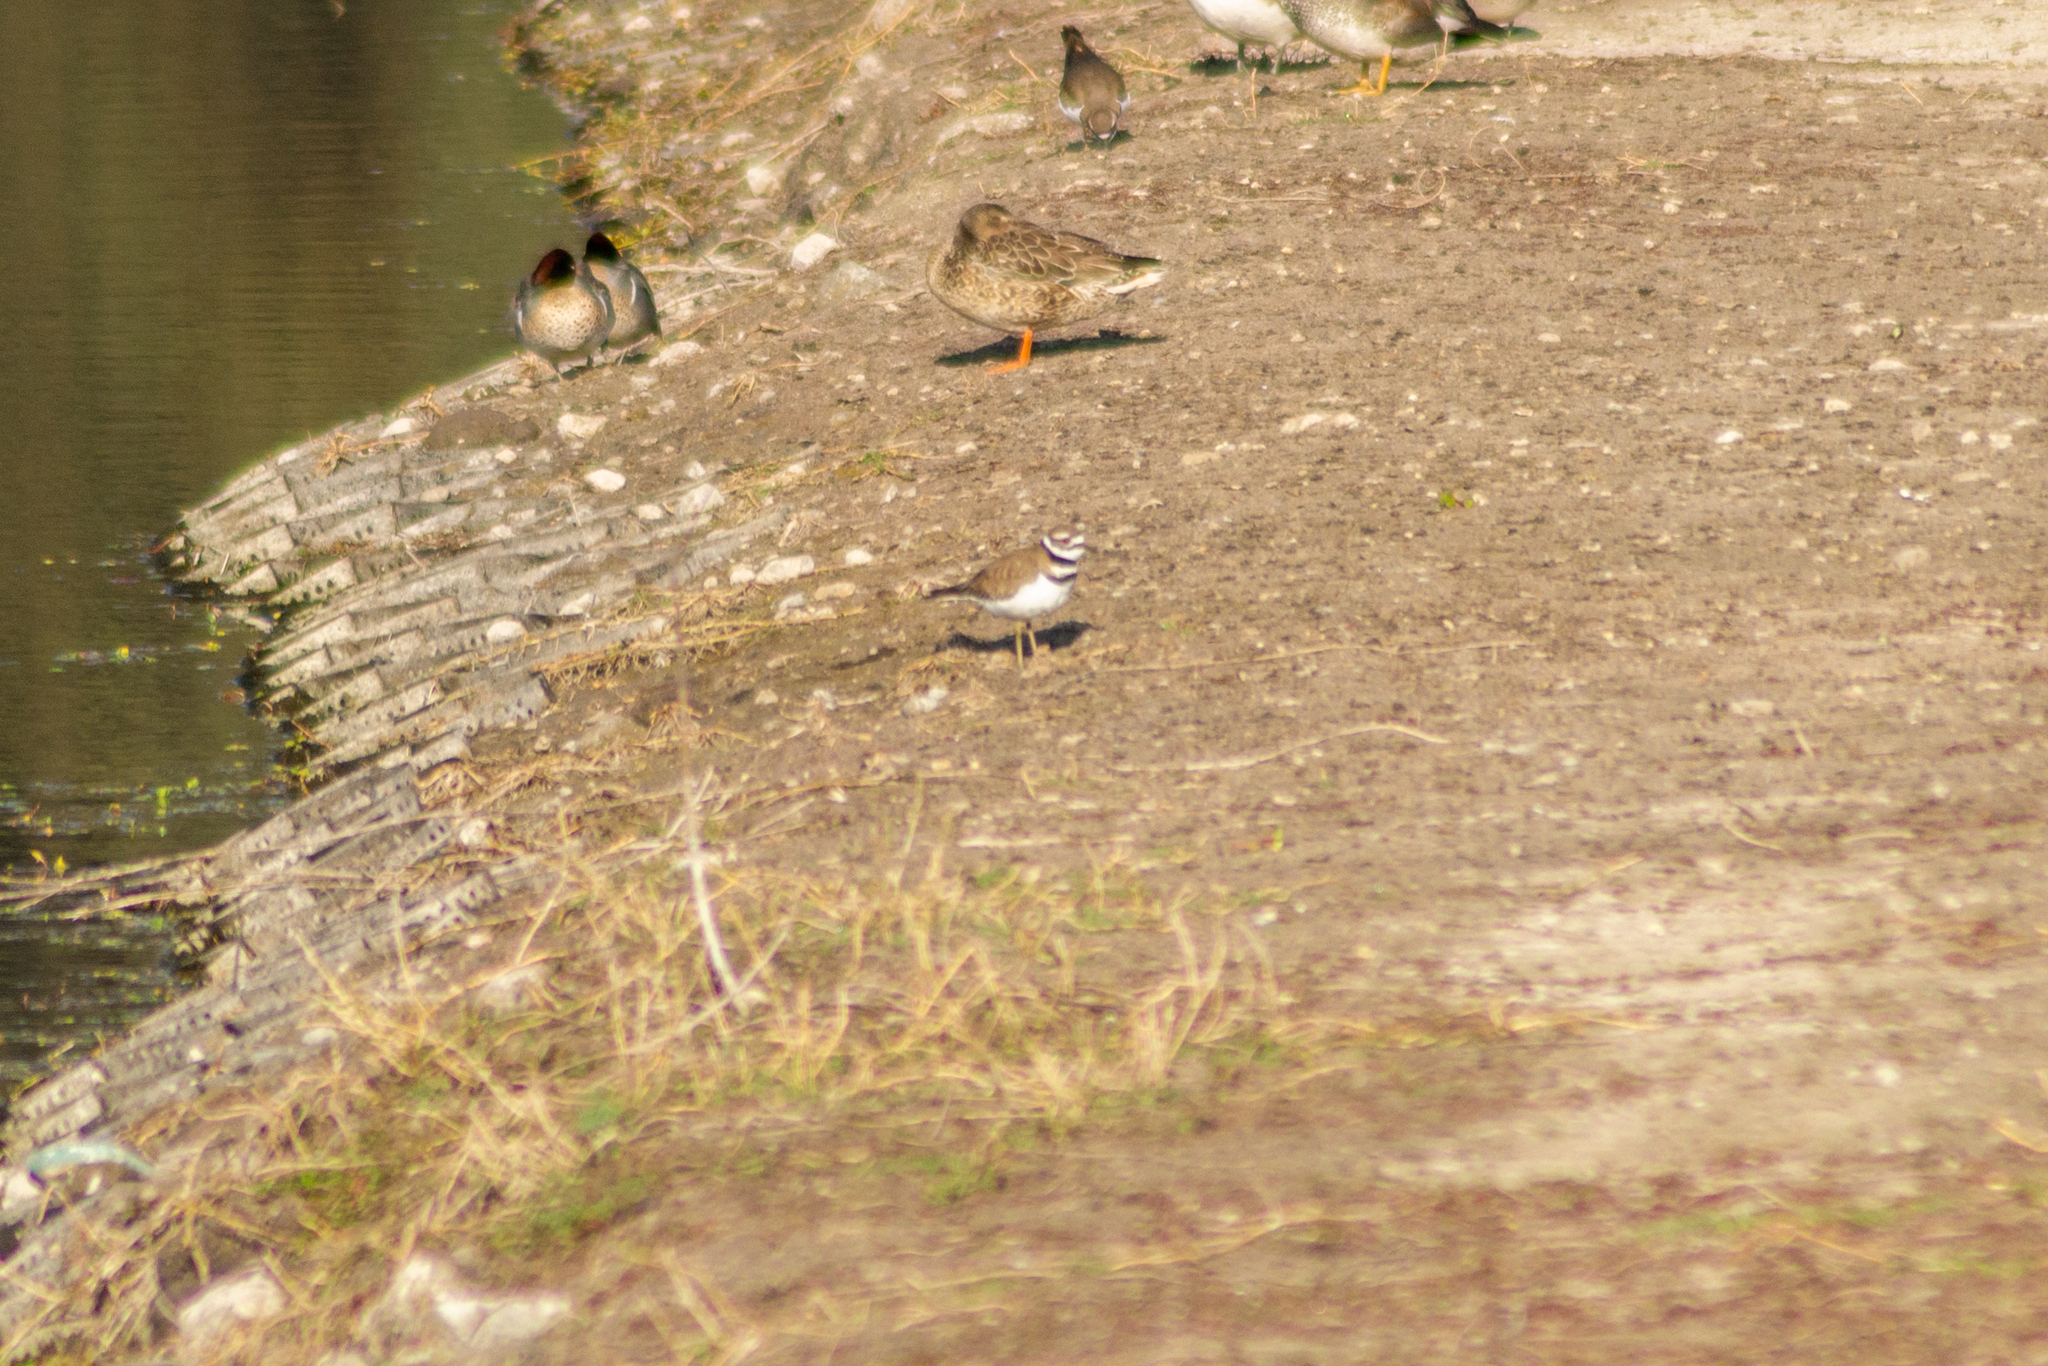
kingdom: Animalia
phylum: Chordata
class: Aves
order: Charadriiformes
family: Charadriidae
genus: Charadrius
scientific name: Charadrius vociferus
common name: Killdeer
